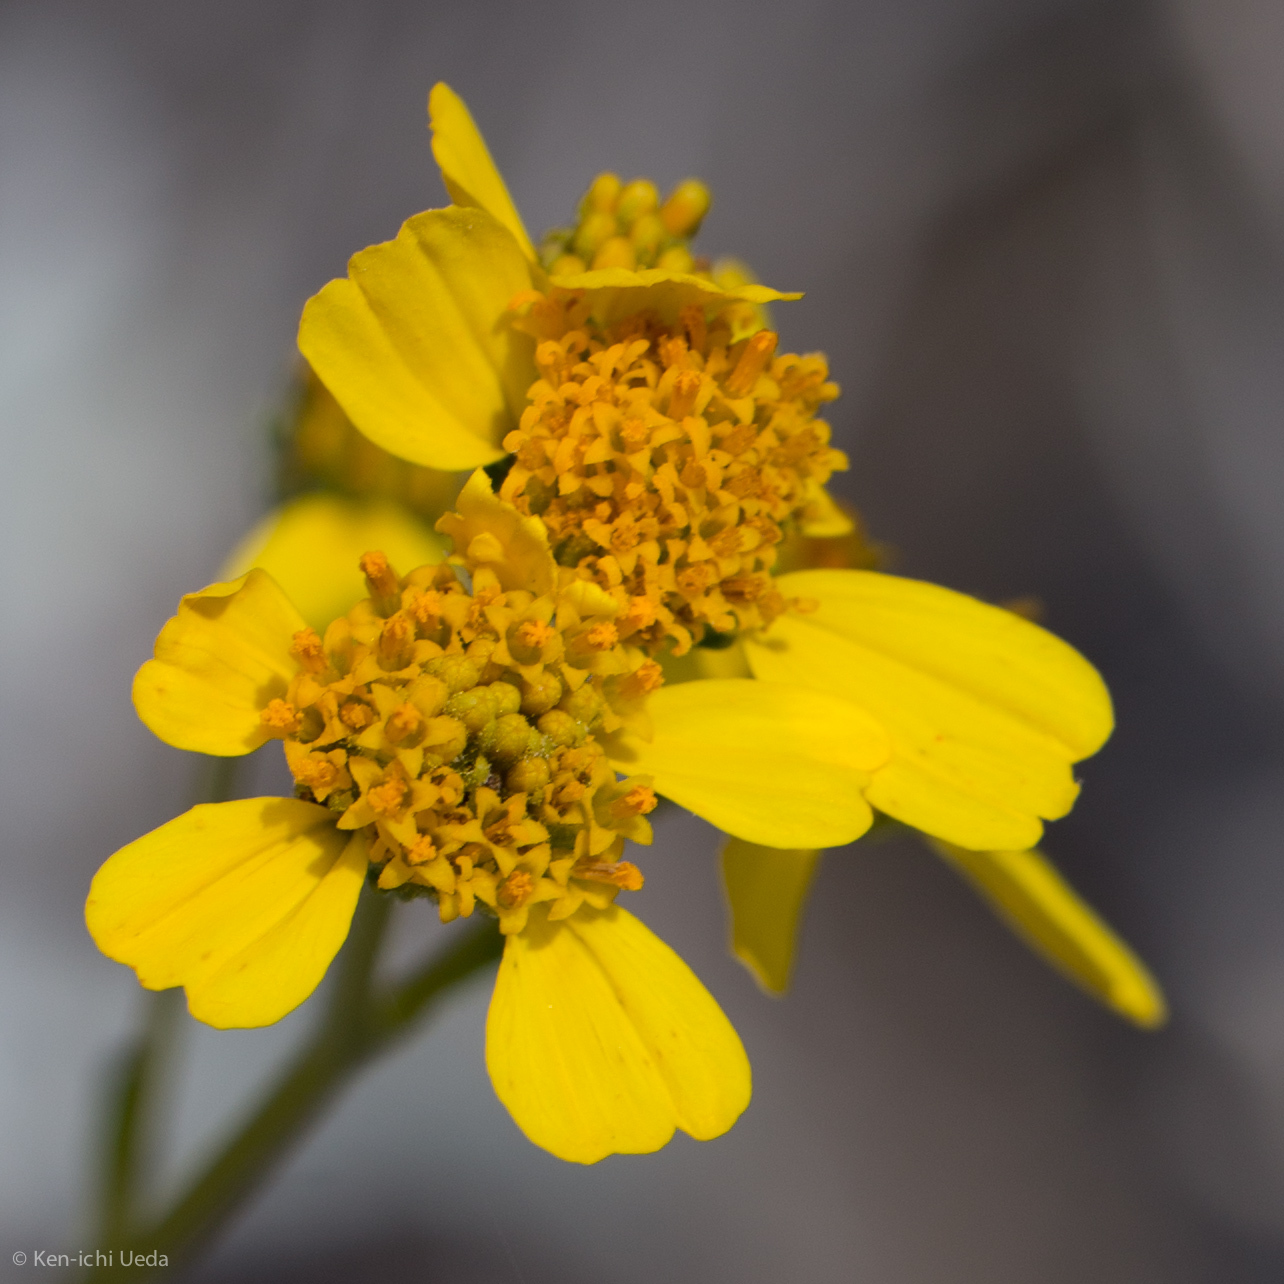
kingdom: Plantae
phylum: Tracheophyta
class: Magnoliopsida
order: Asterales
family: Asteraceae
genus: Encelia
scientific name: Encelia farinosa
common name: Brittlebush
